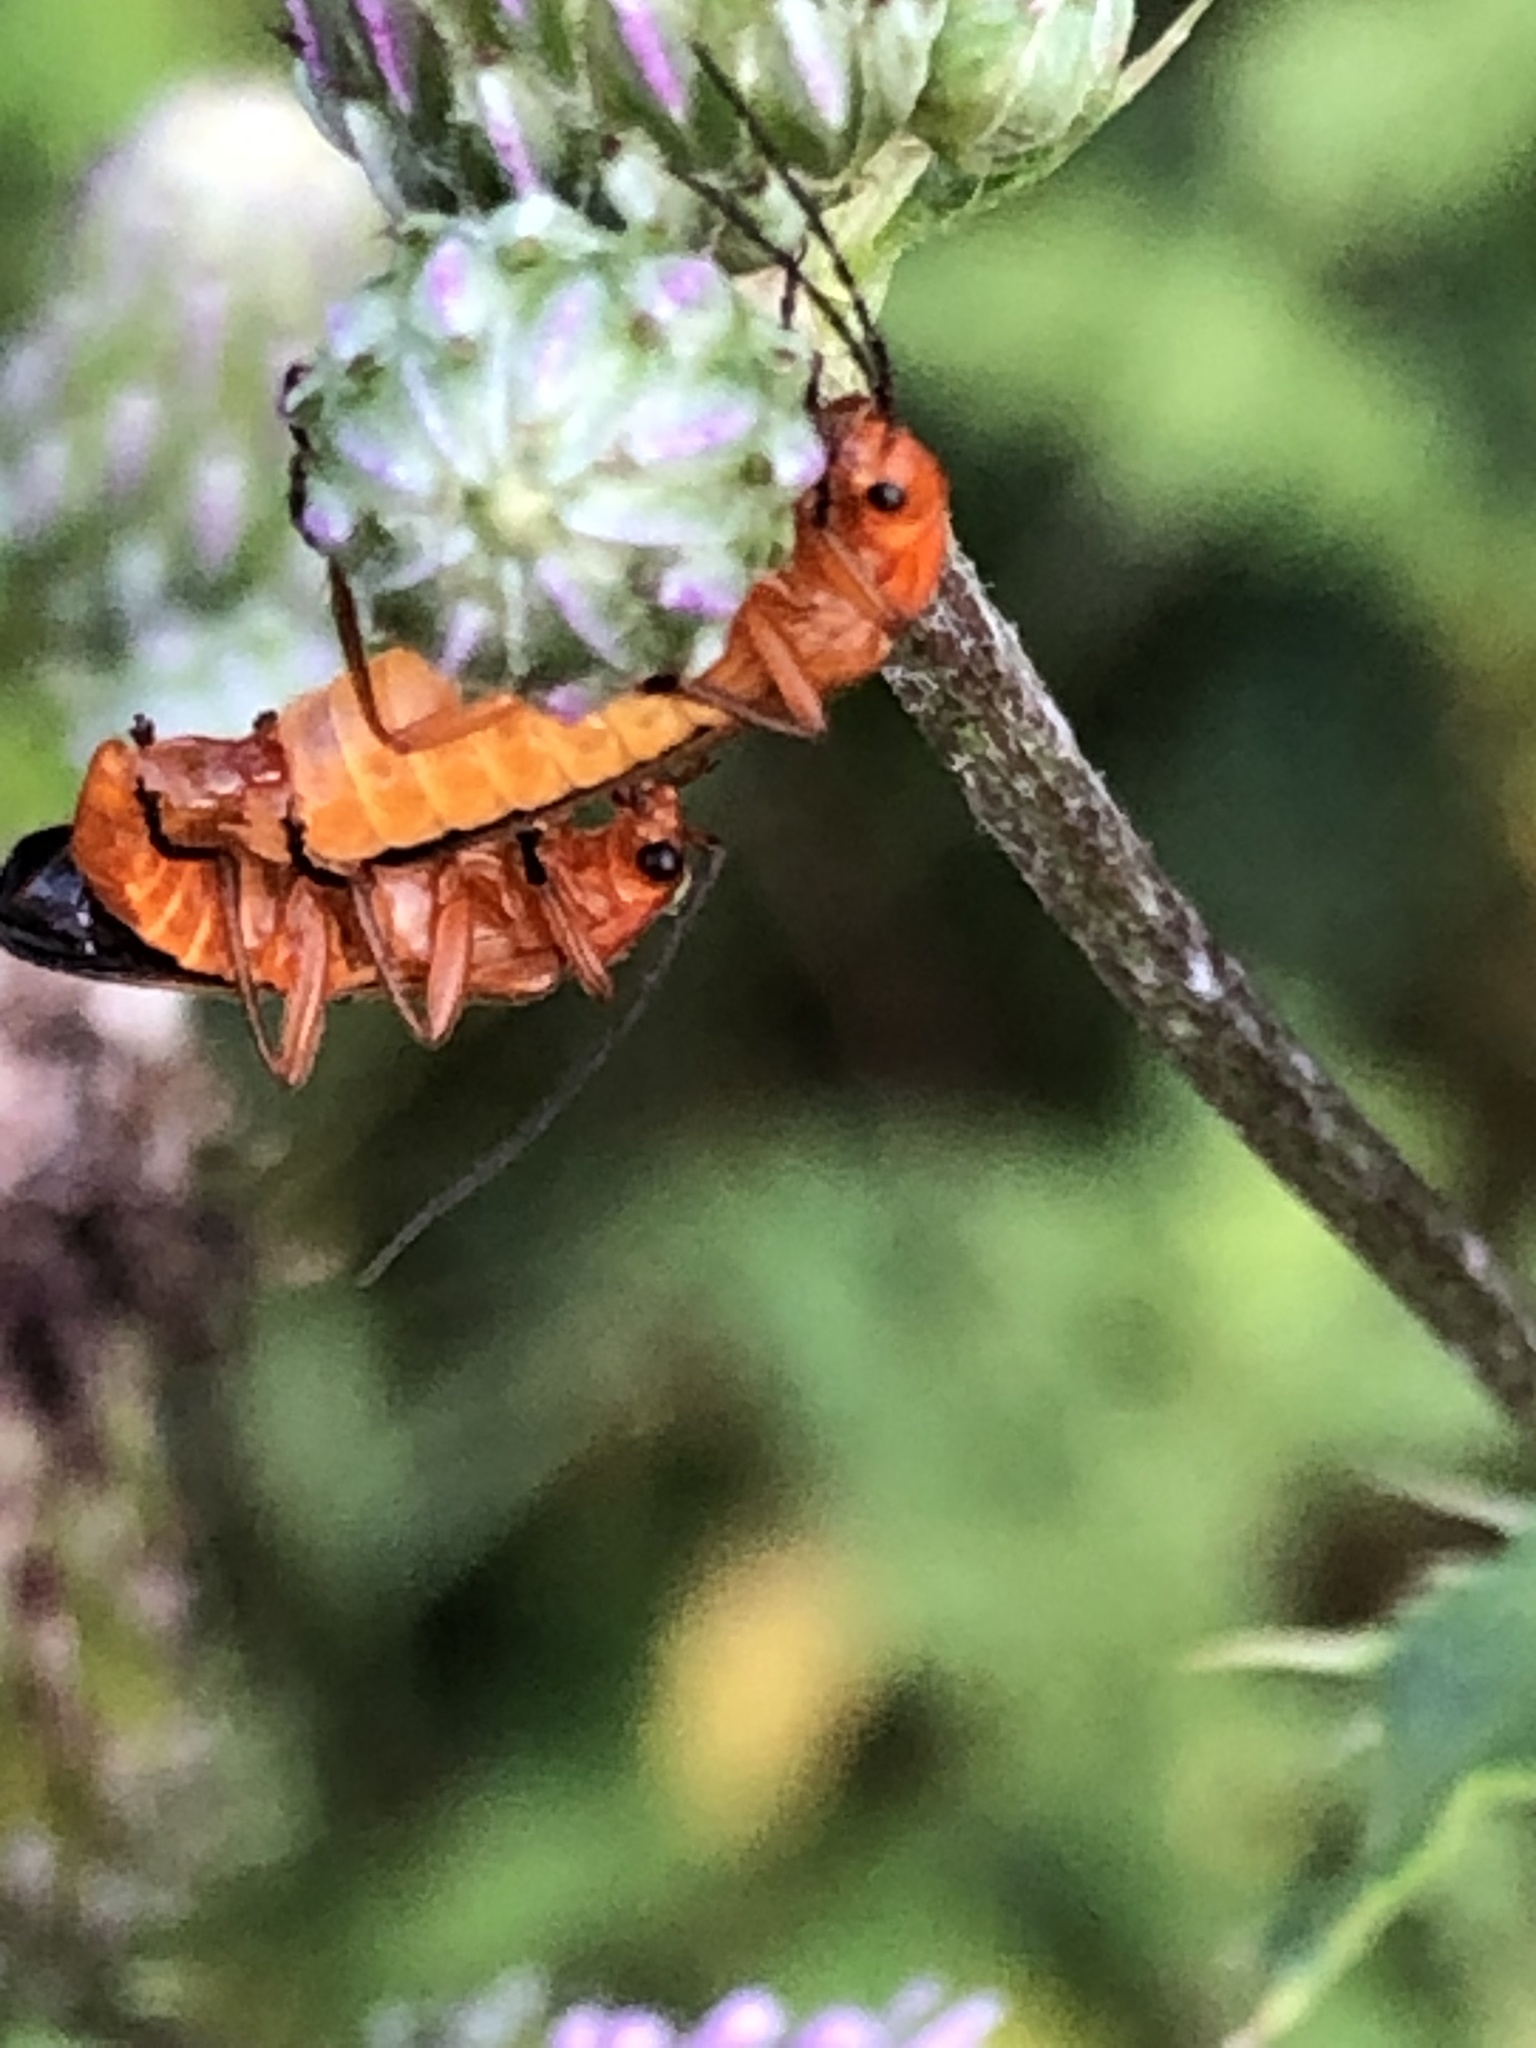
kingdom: Animalia
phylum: Arthropoda
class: Insecta
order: Coleoptera
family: Cantharidae
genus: Rhagonycha
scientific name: Rhagonycha fulva
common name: Common red soldier beetle
